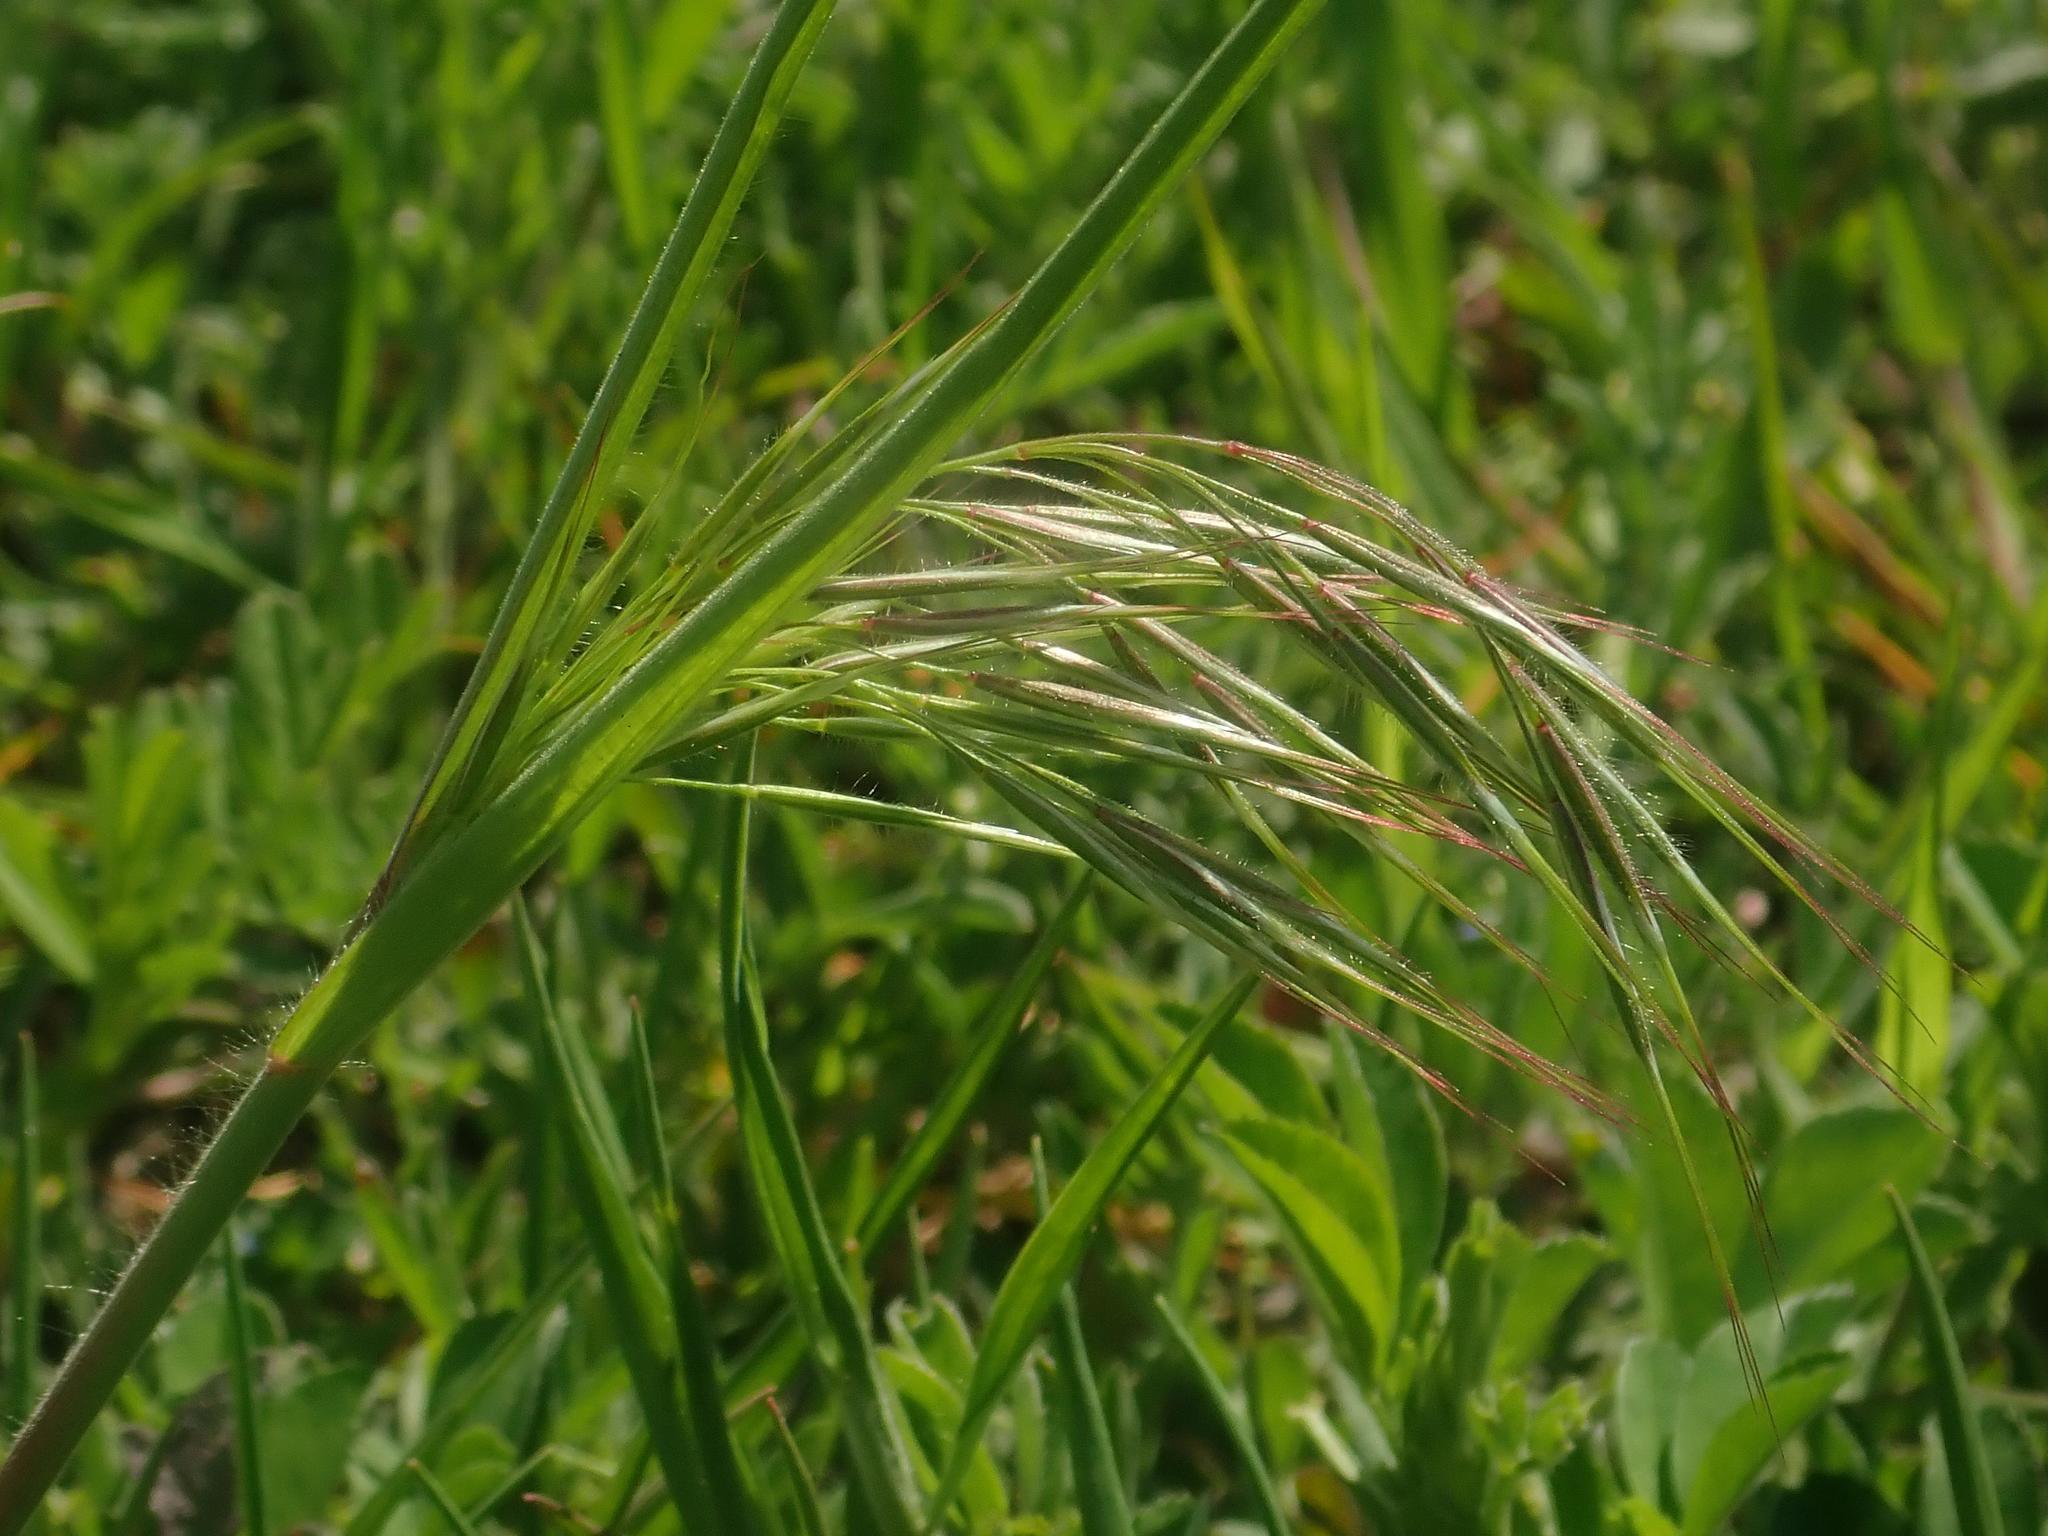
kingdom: Plantae
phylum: Tracheophyta
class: Liliopsida
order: Poales
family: Poaceae
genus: Bromus
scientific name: Bromus tectorum
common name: Cheatgrass
